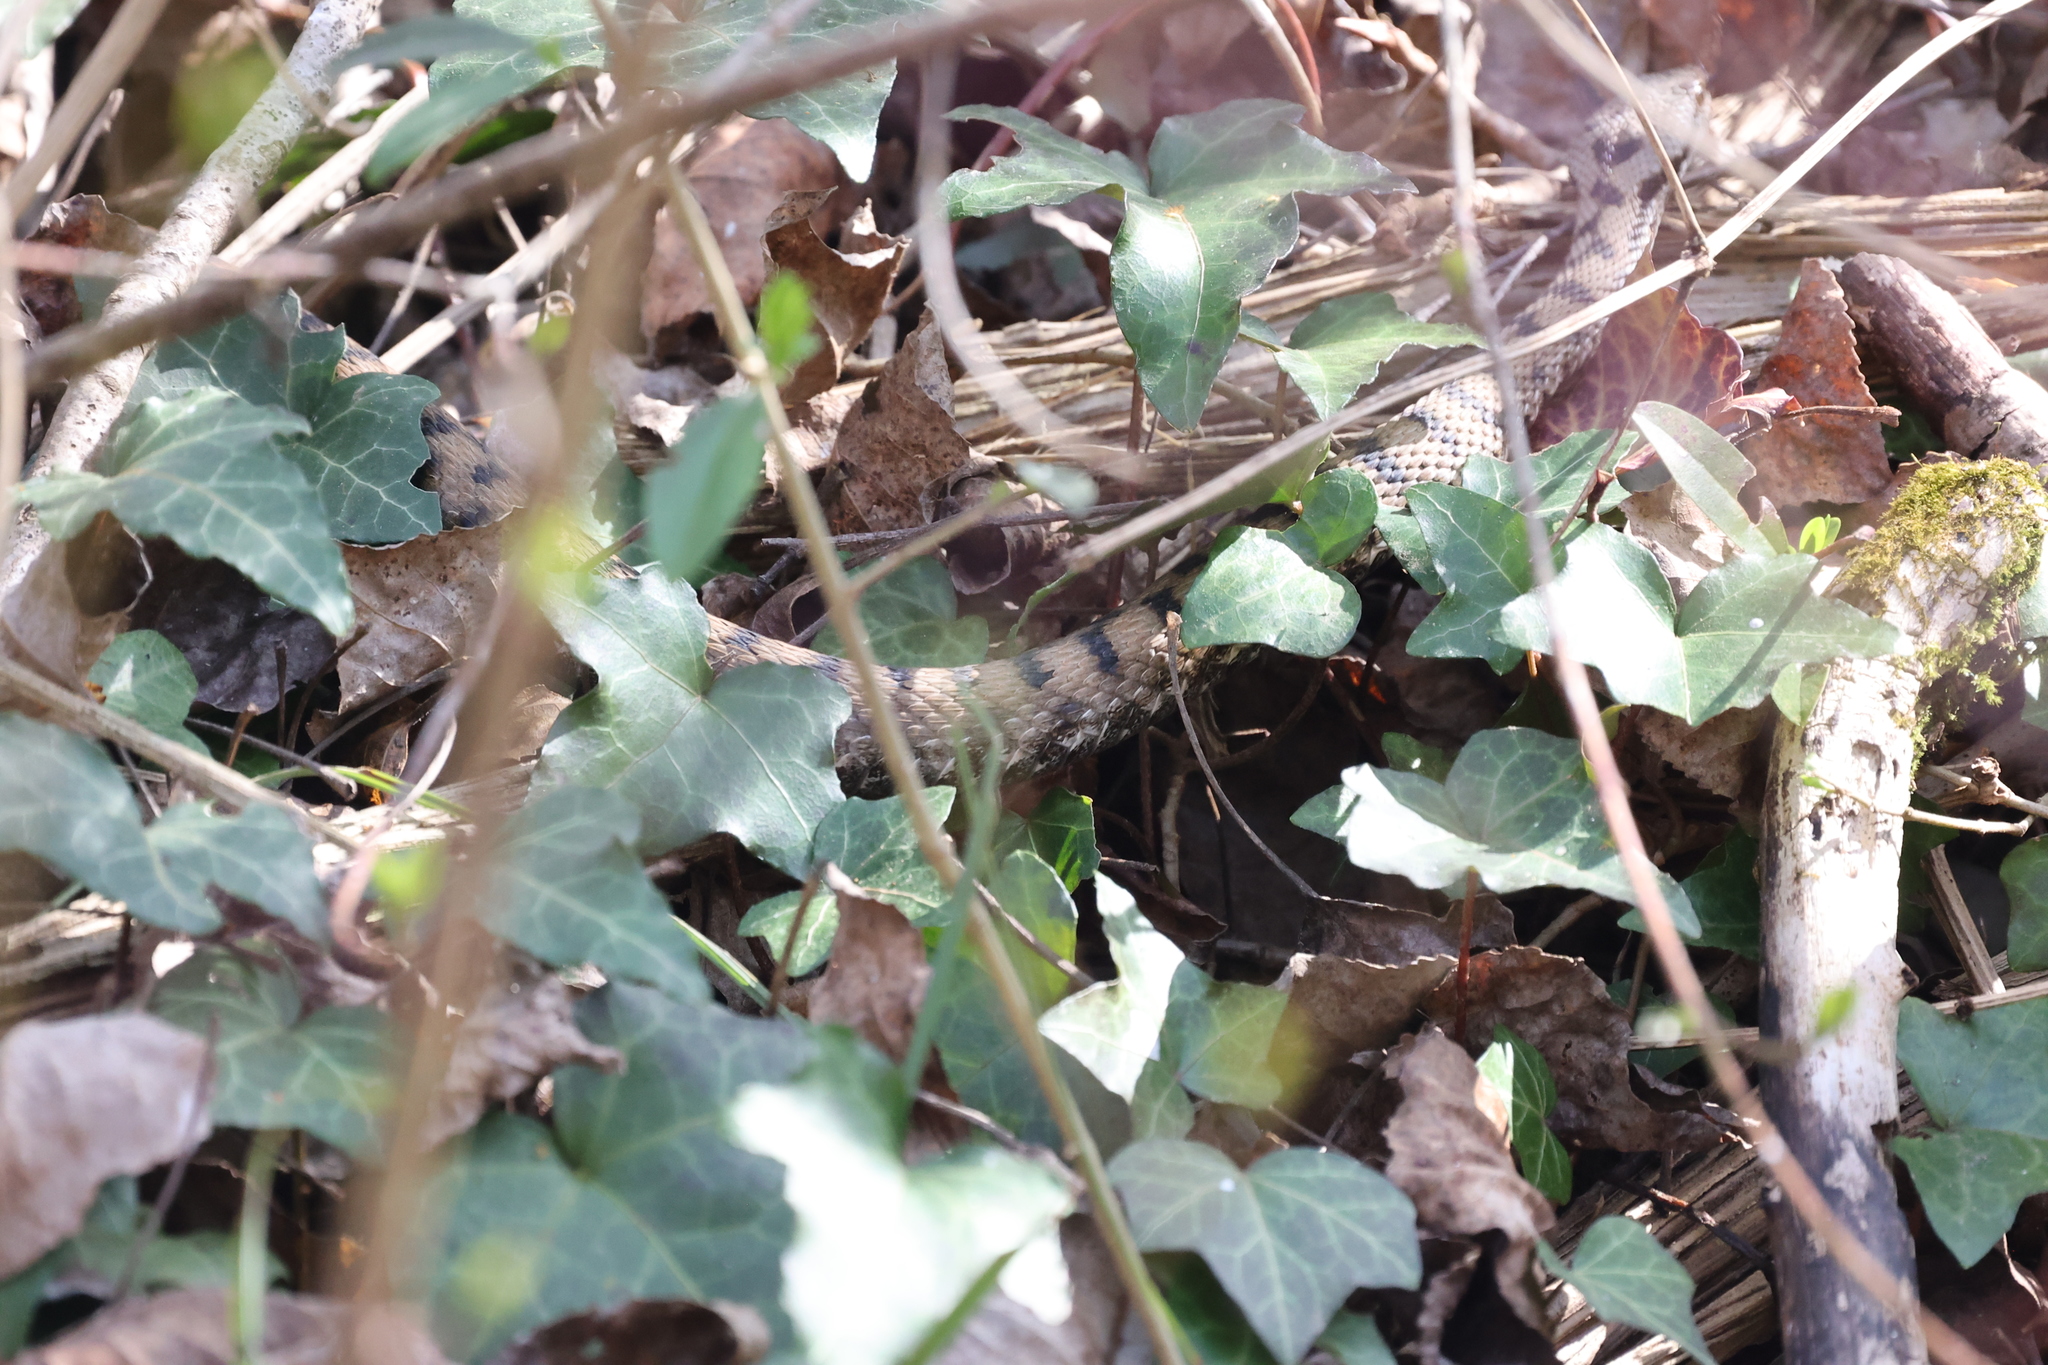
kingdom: Animalia
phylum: Chordata
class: Squamata
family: Viperidae
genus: Vipera
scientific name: Vipera aspis
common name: Asp viper
